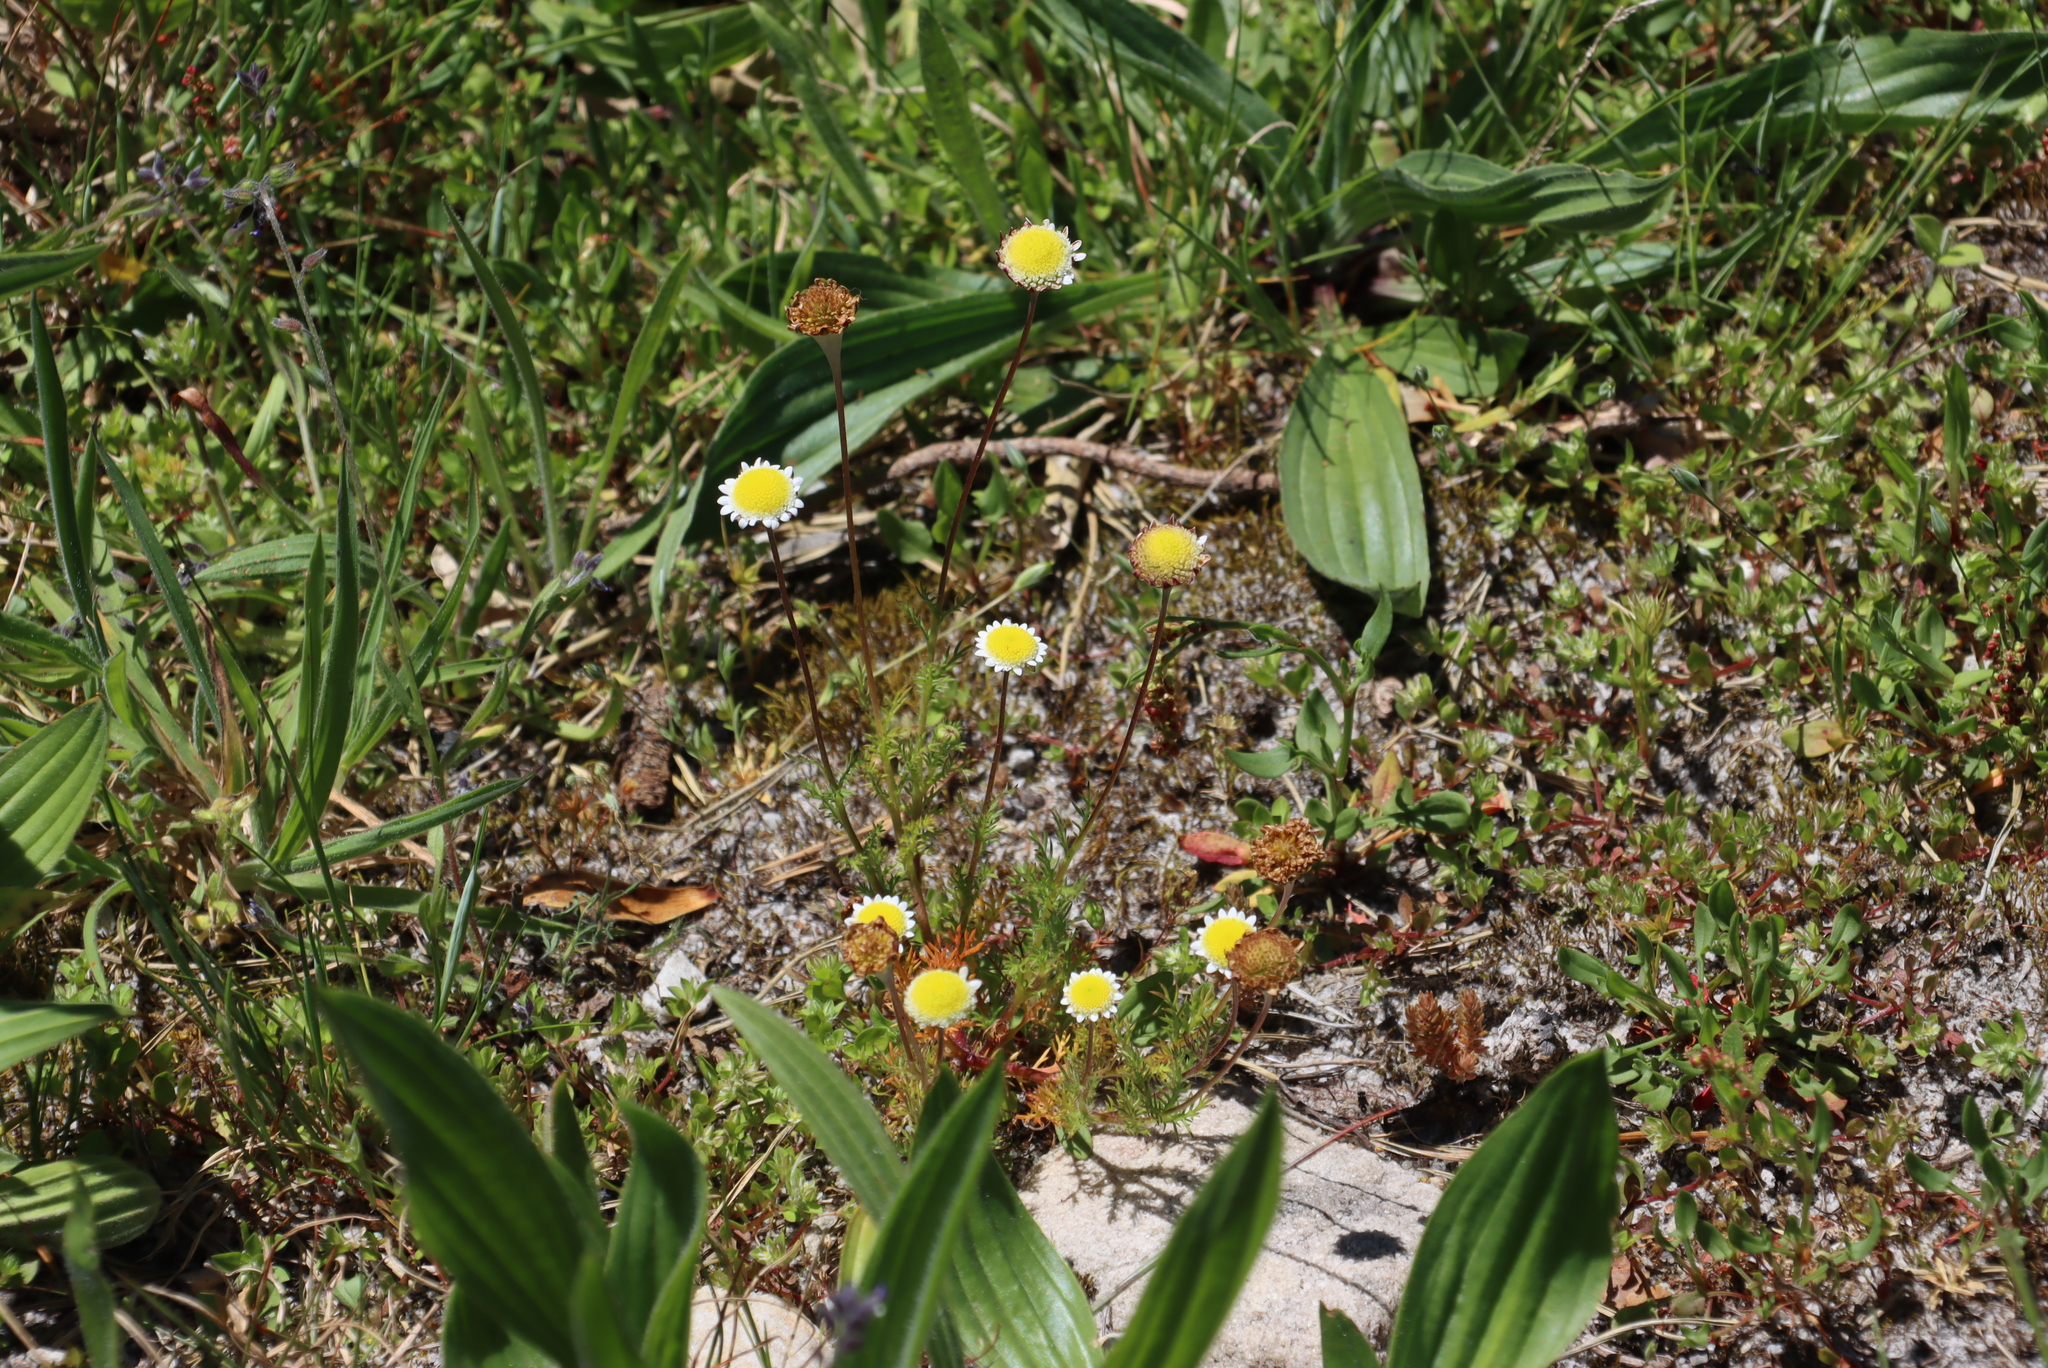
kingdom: Plantae
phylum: Tracheophyta
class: Magnoliopsida
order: Lamiales
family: Plantaginaceae
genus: Plantago
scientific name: Plantago lanceolata
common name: Ribwort plantain
